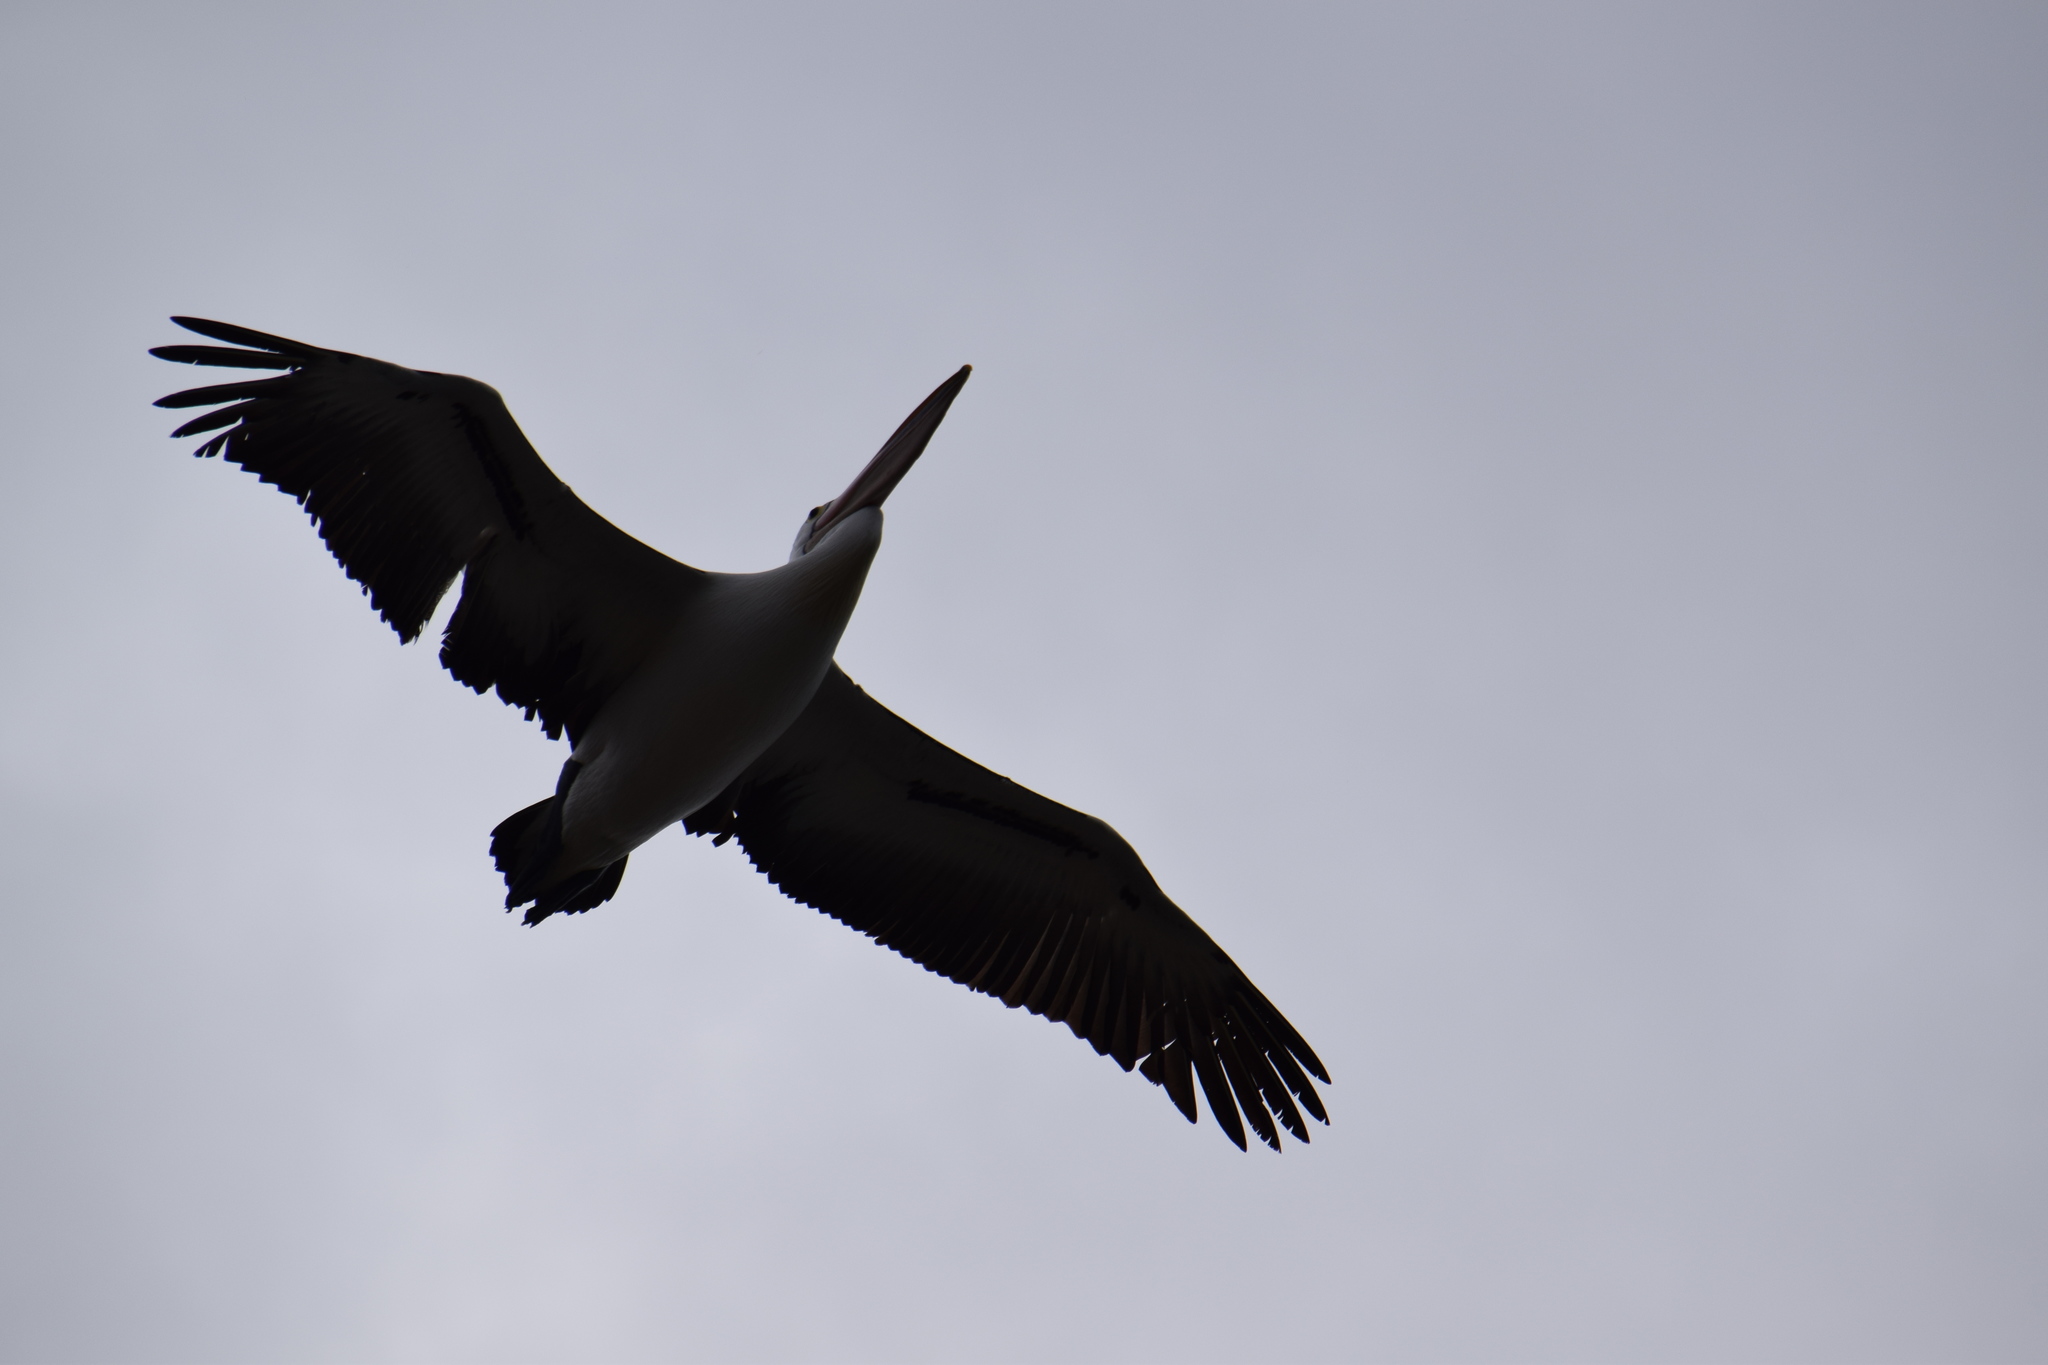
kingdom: Animalia
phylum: Chordata
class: Aves
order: Pelecaniformes
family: Pelecanidae
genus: Pelecanus
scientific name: Pelecanus conspicillatus
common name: Australian pelican
